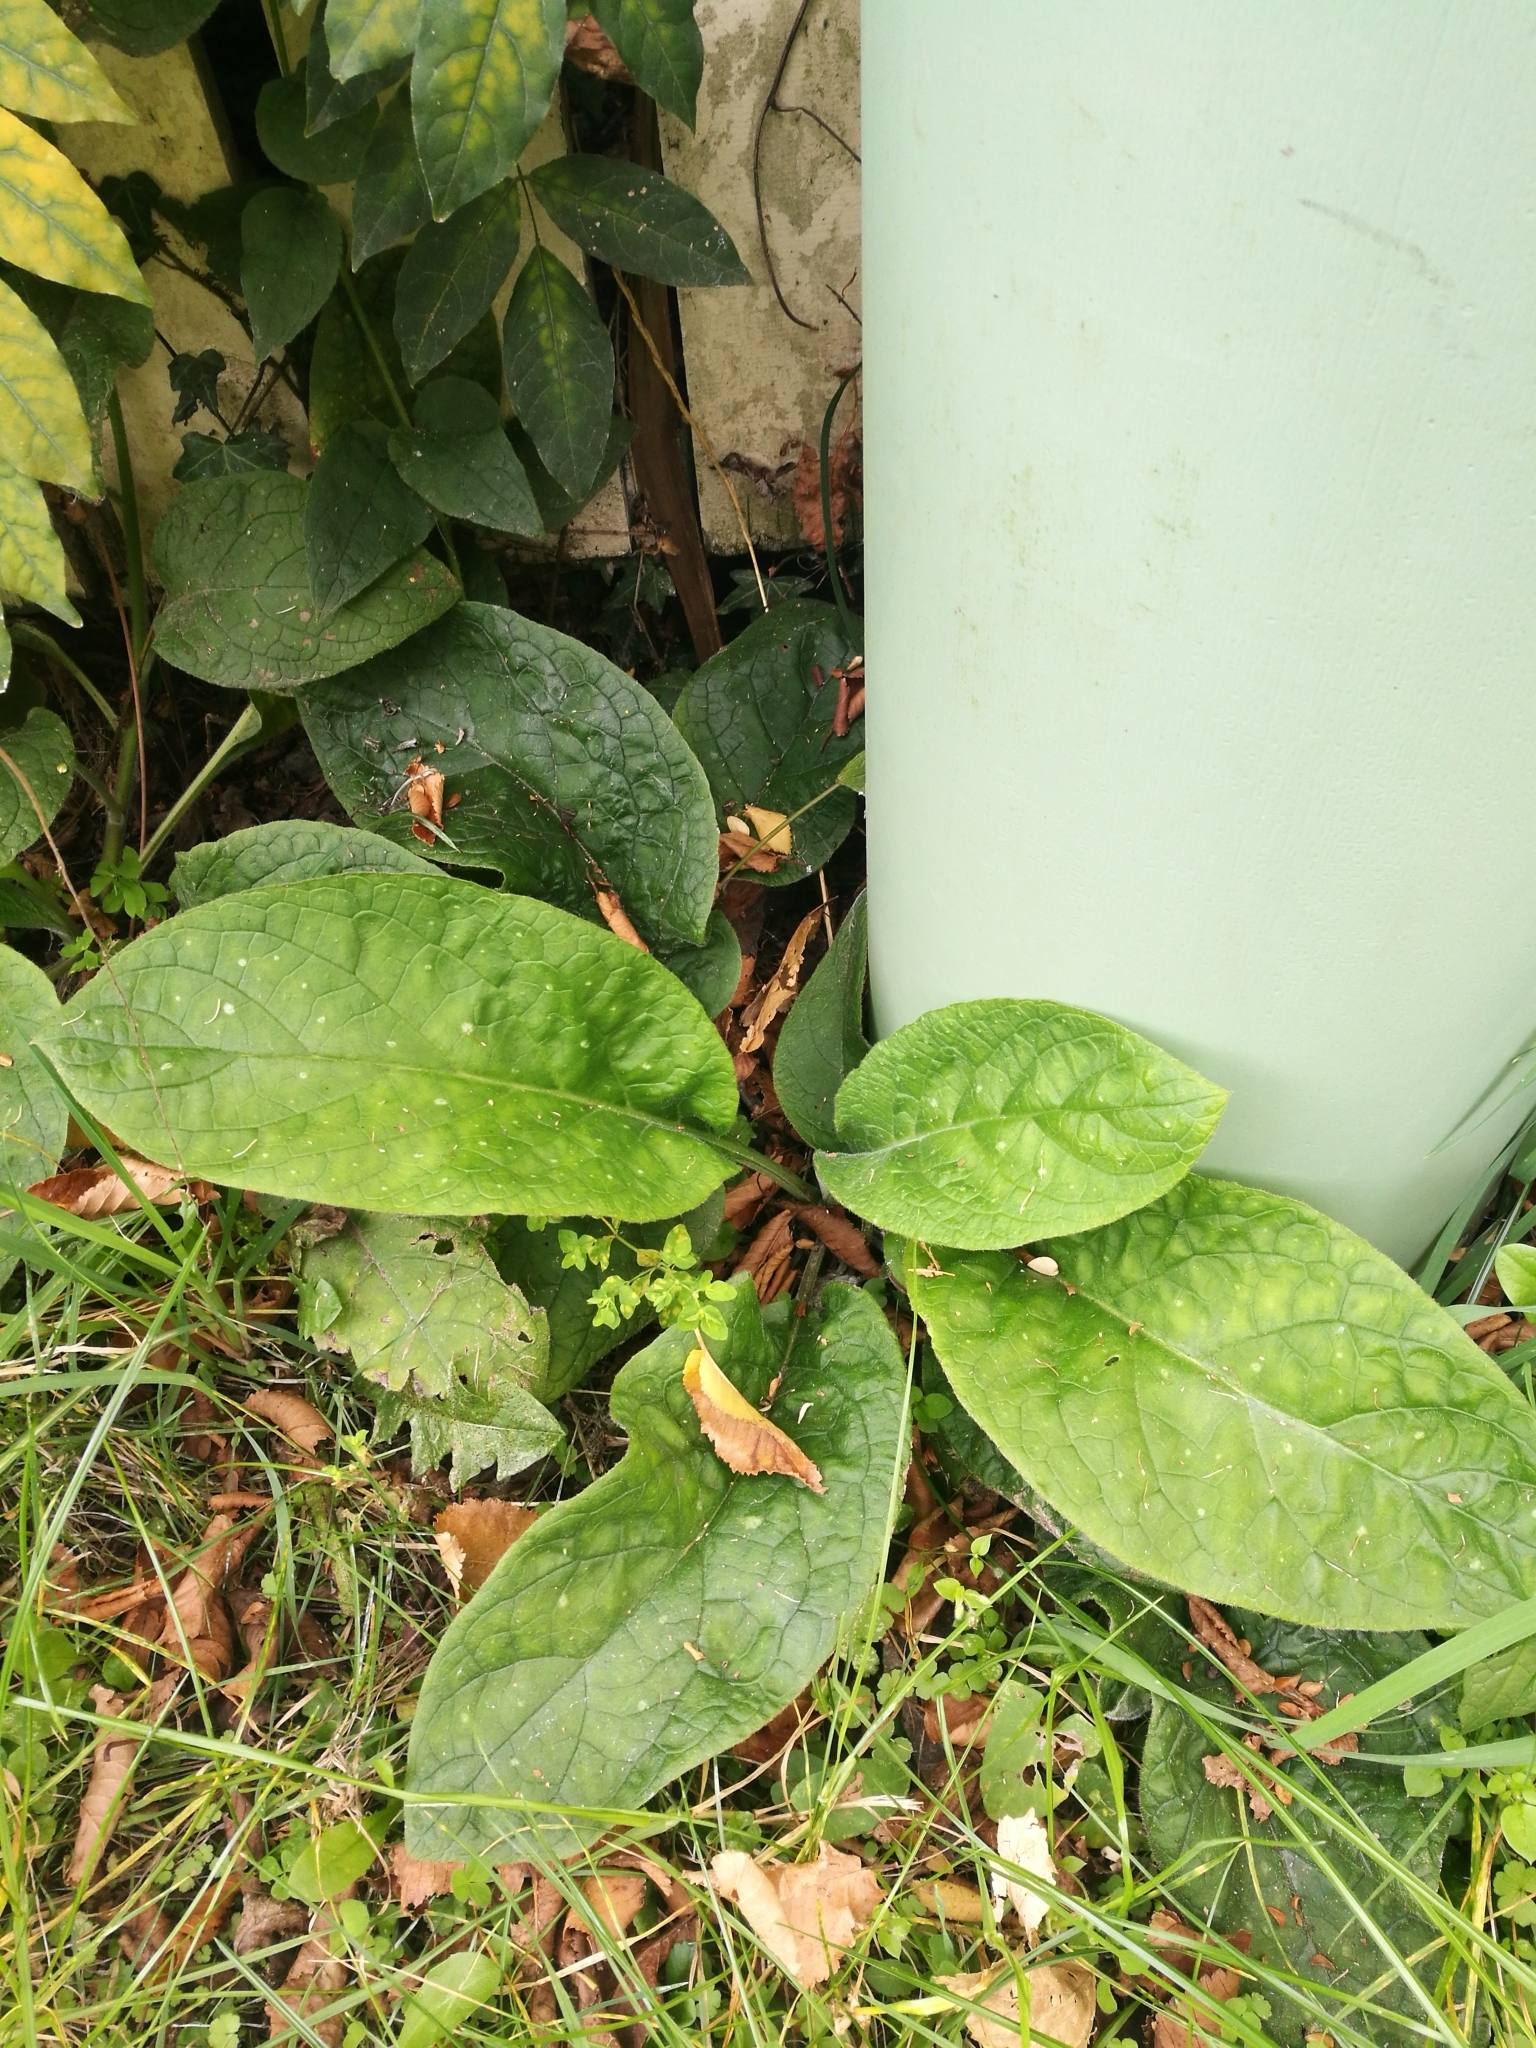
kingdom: Plantae
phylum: Tracheophyta
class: Magnoliopsida
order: Boraginales
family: Boraginaceae
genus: Pentaglottis
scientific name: Pentaglottis sempervirens
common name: Green alkanet
